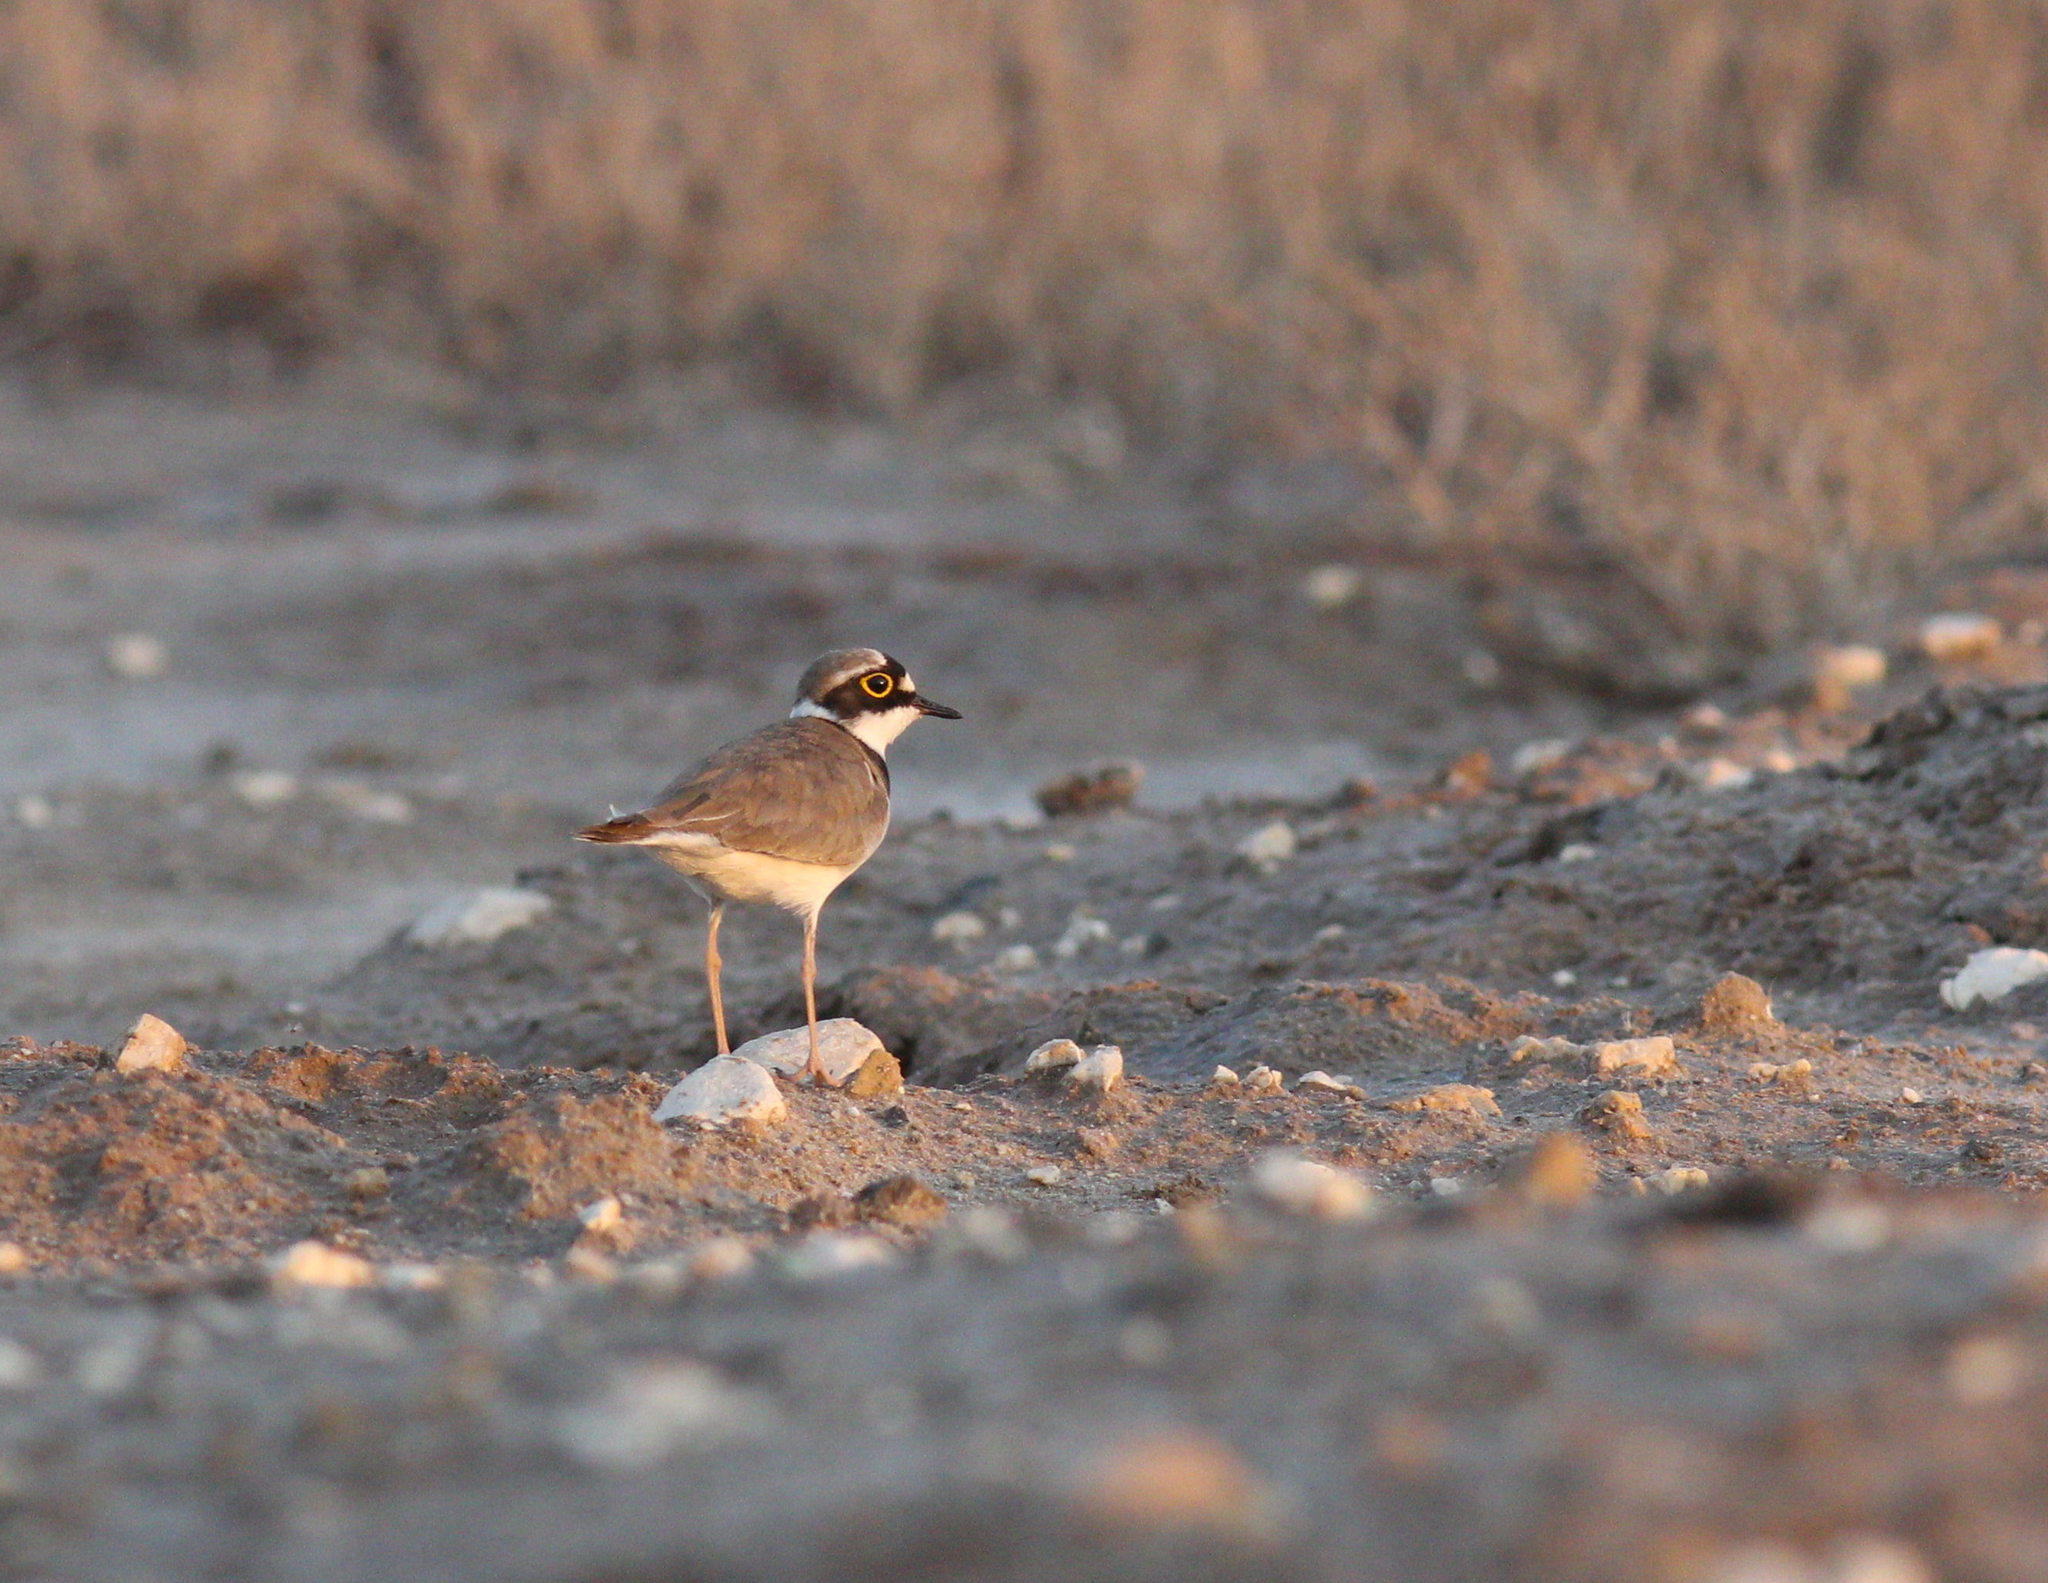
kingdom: Animalia
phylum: Chordata
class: Aves
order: Charadriiformes
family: Charadriidae
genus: Charadrius
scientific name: Charadrius dubius
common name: Little ringed plover
